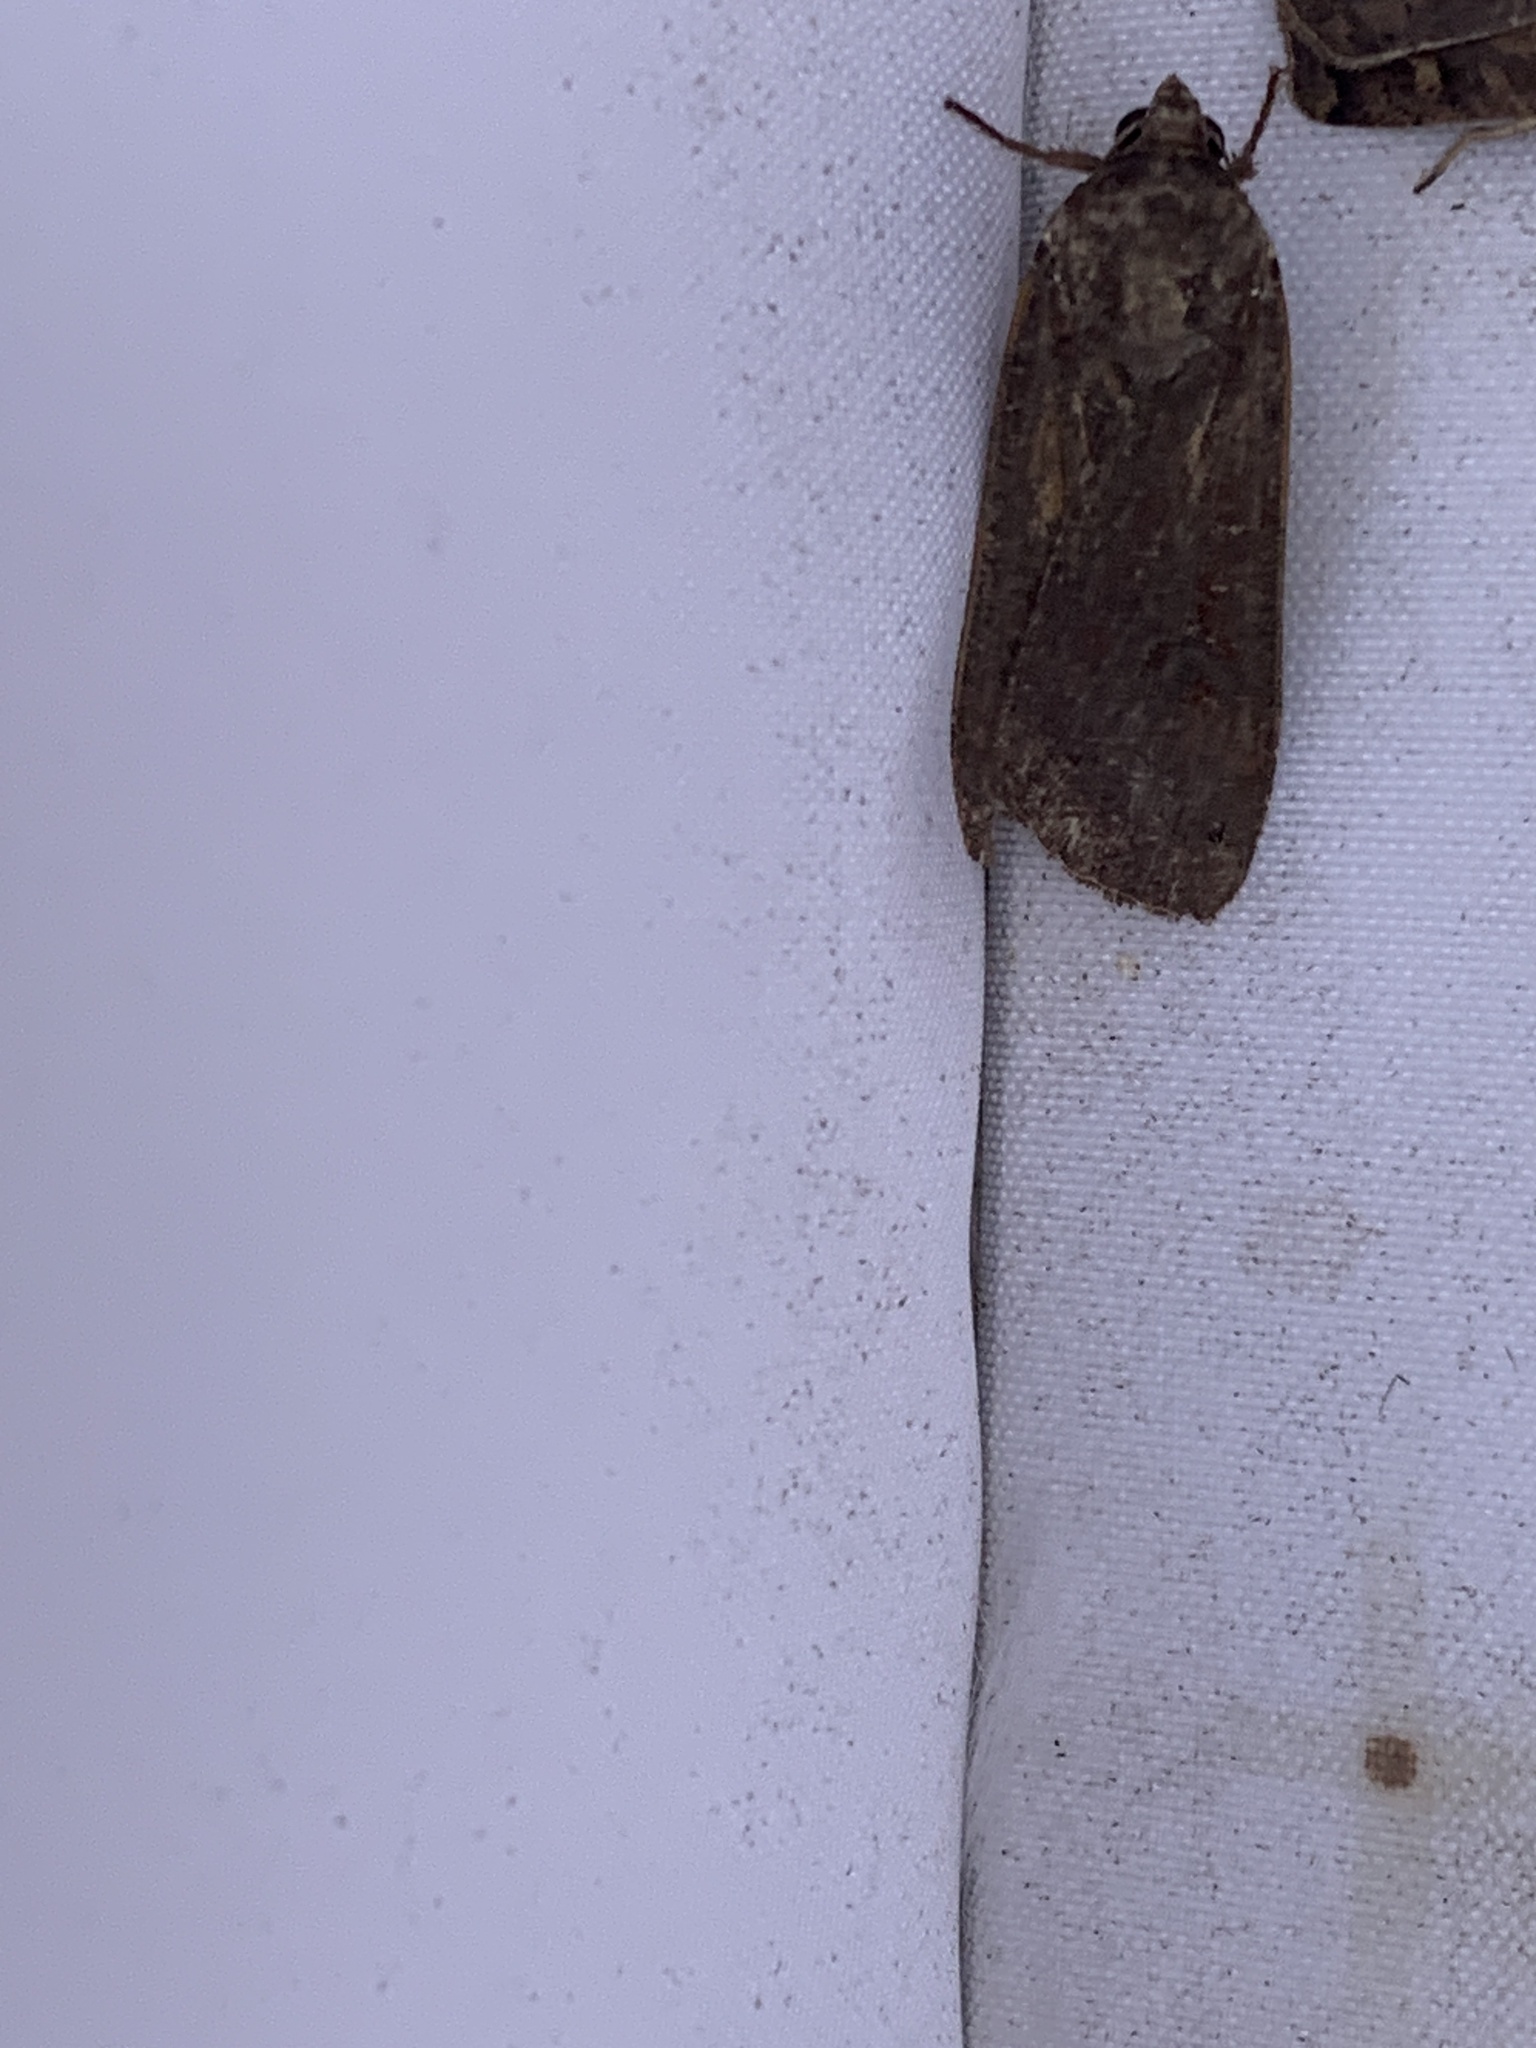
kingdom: Animalia
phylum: Arthropoda
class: Insecta
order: Lepidoptera
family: Noctuidae
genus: Noctua
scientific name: Noctua pronuba
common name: Large yellow underwing
